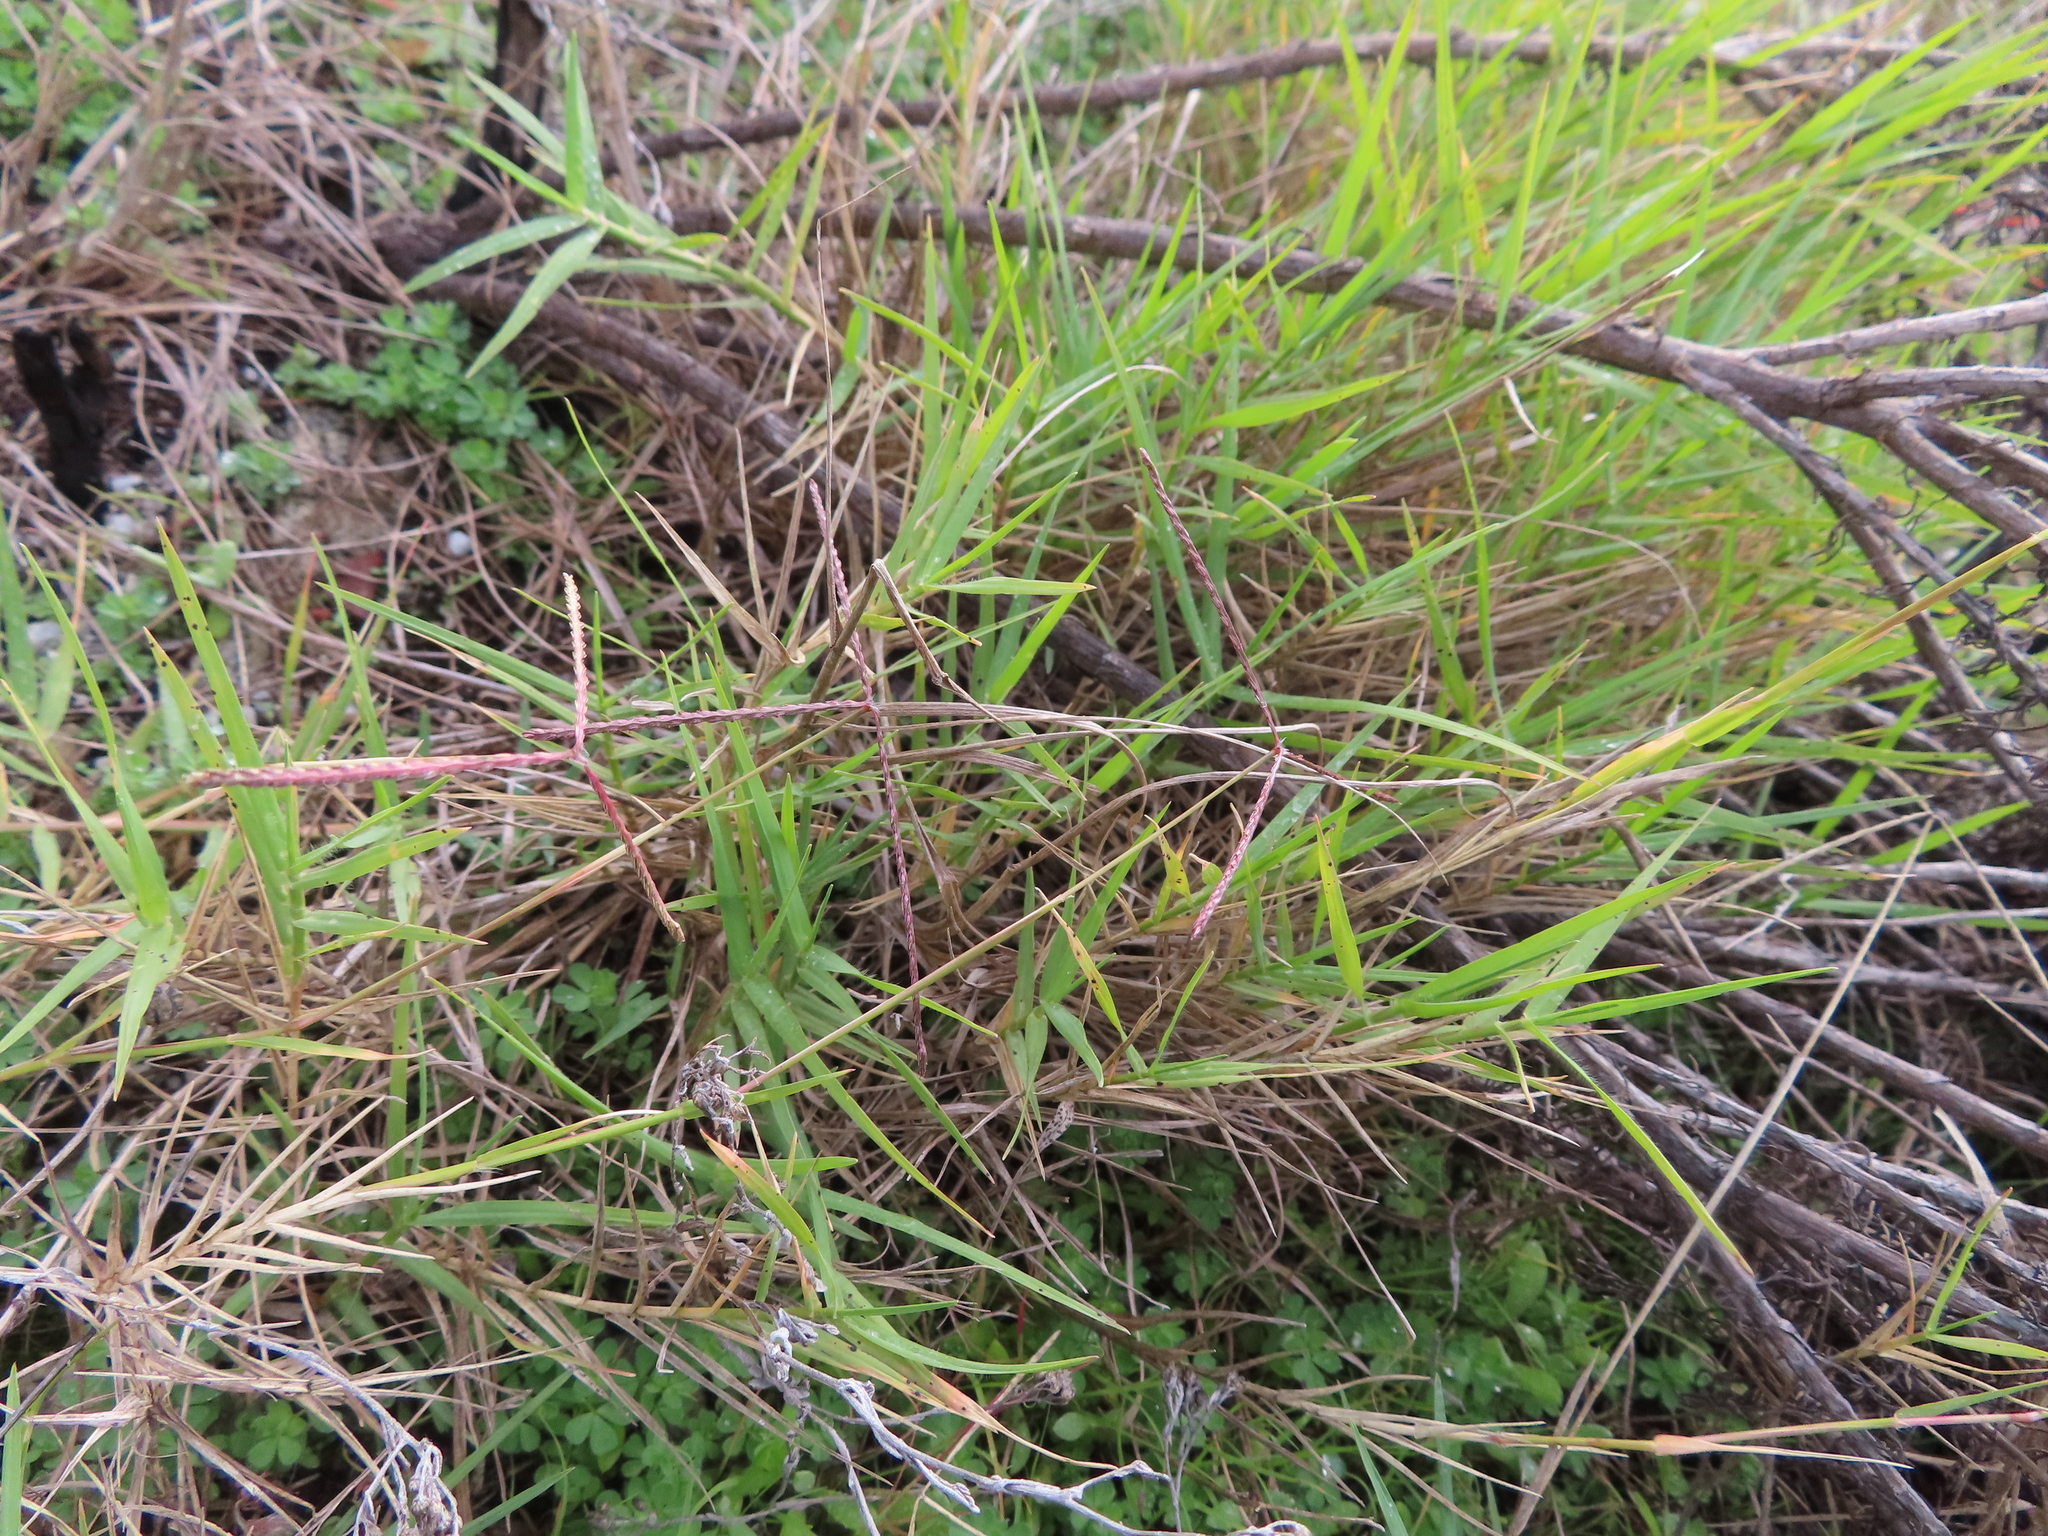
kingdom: Plantae
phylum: Tracheophyta
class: Liliopsida
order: Poales
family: Poaceae
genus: Cynodon
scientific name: Cynodon dactylon
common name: Bermuda grass
